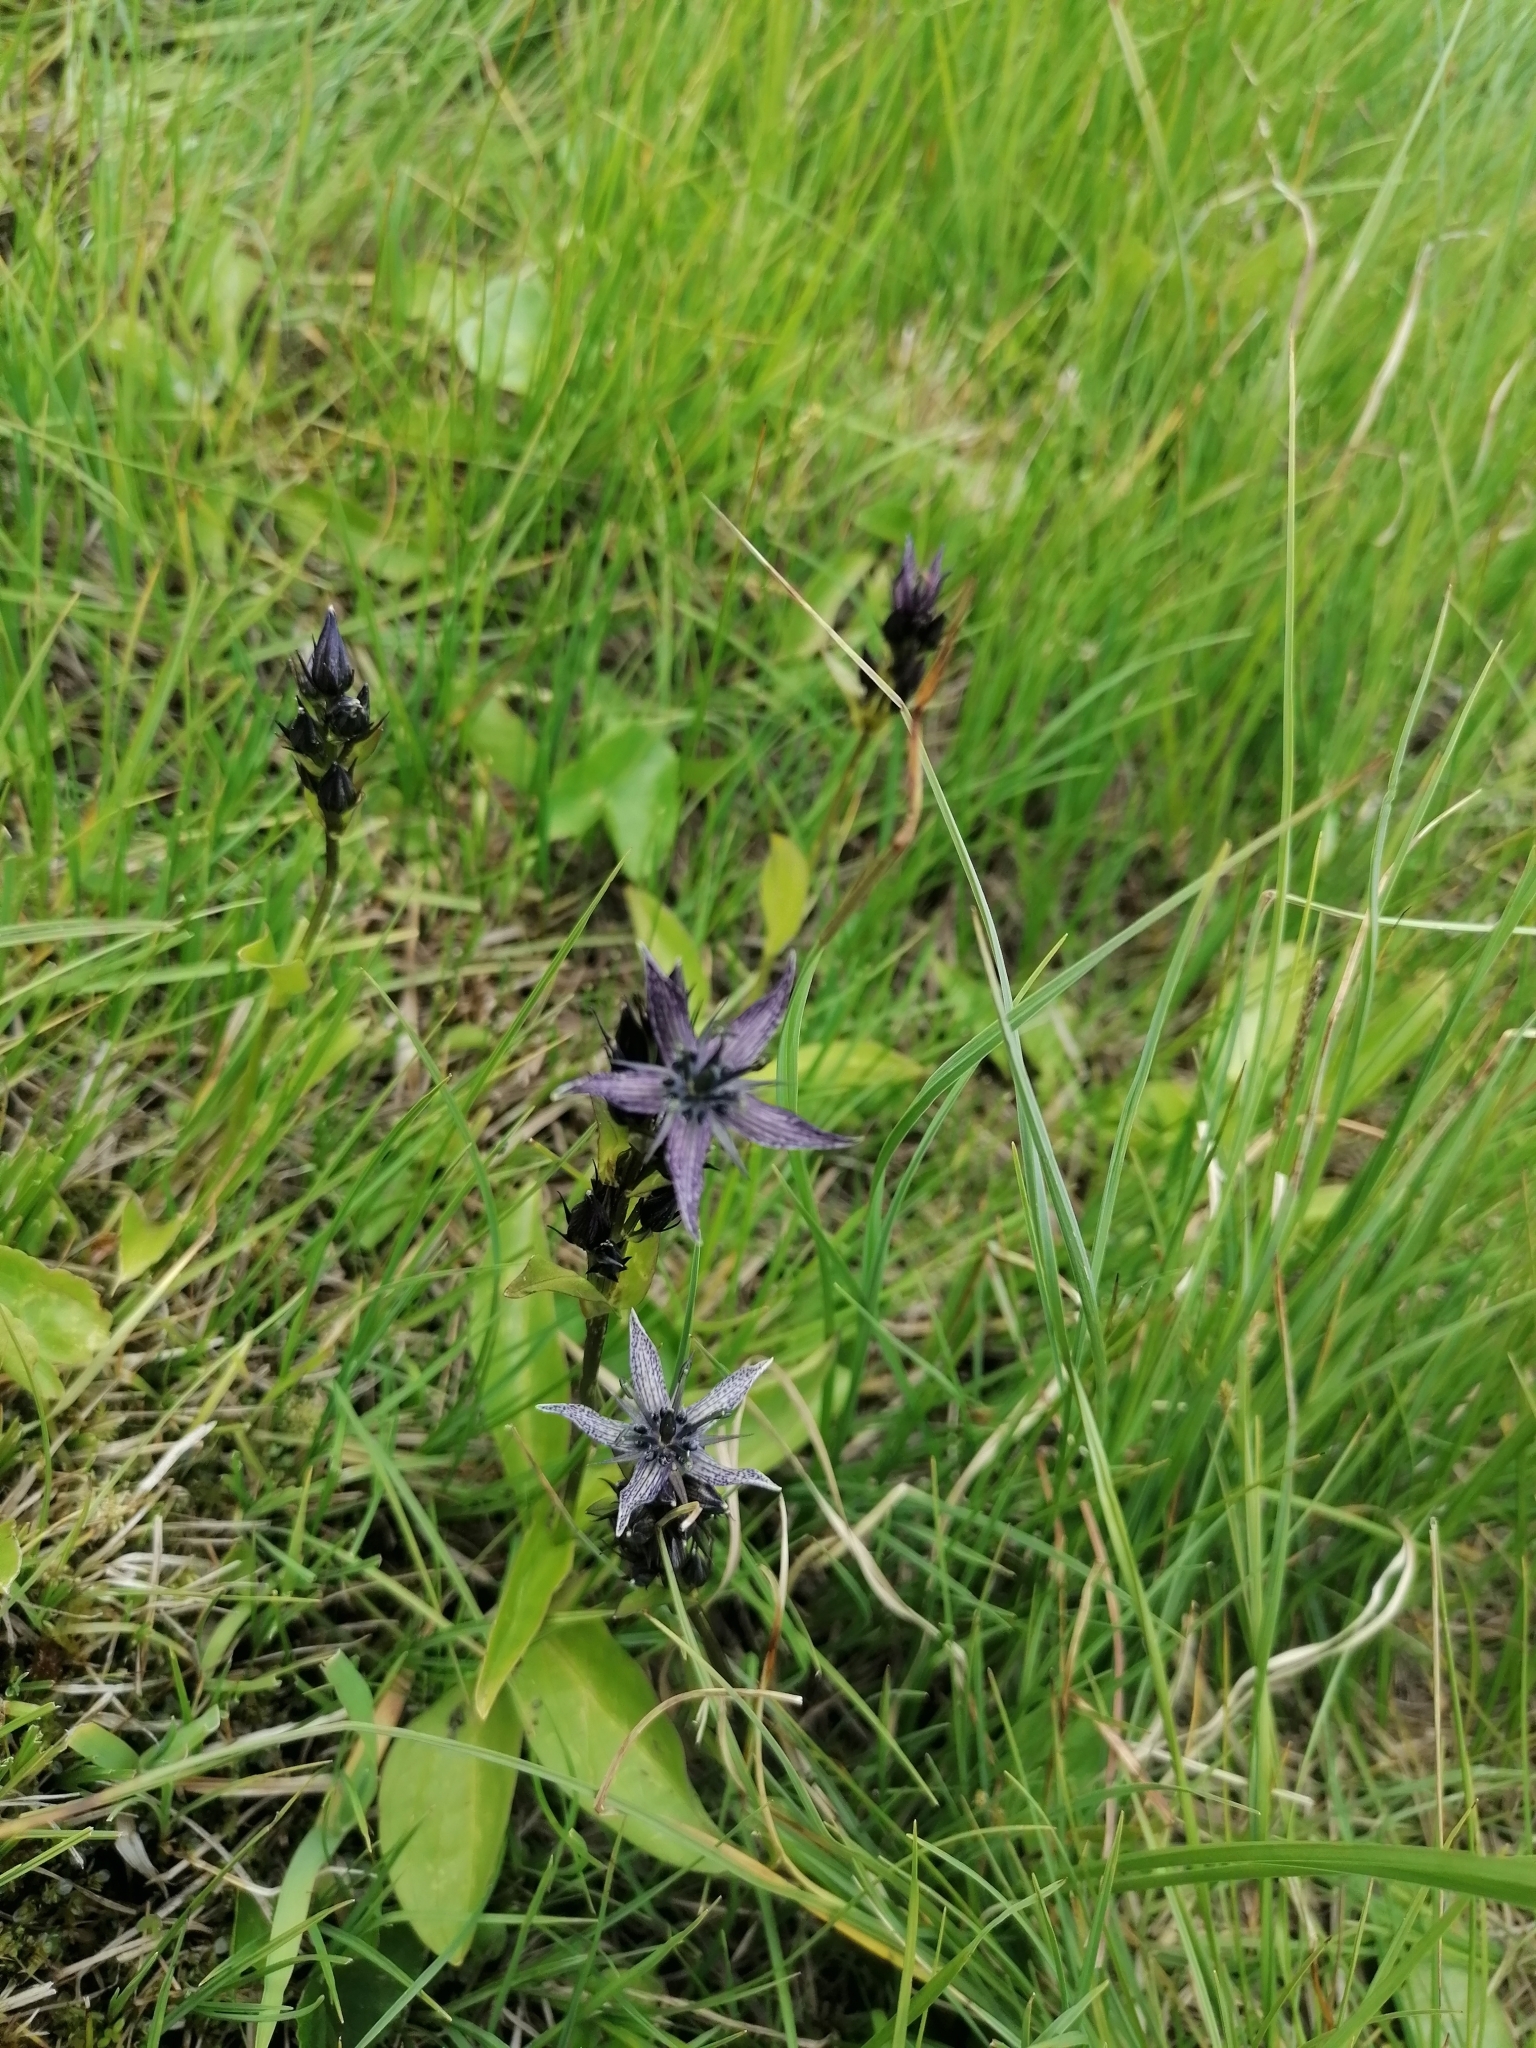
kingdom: Plantae
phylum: Tracheophyta
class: Magnoliopsida
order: Gentianales
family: Gentianaceae
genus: Swertia
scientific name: Swertia perennis
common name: Alpine bog swertia
